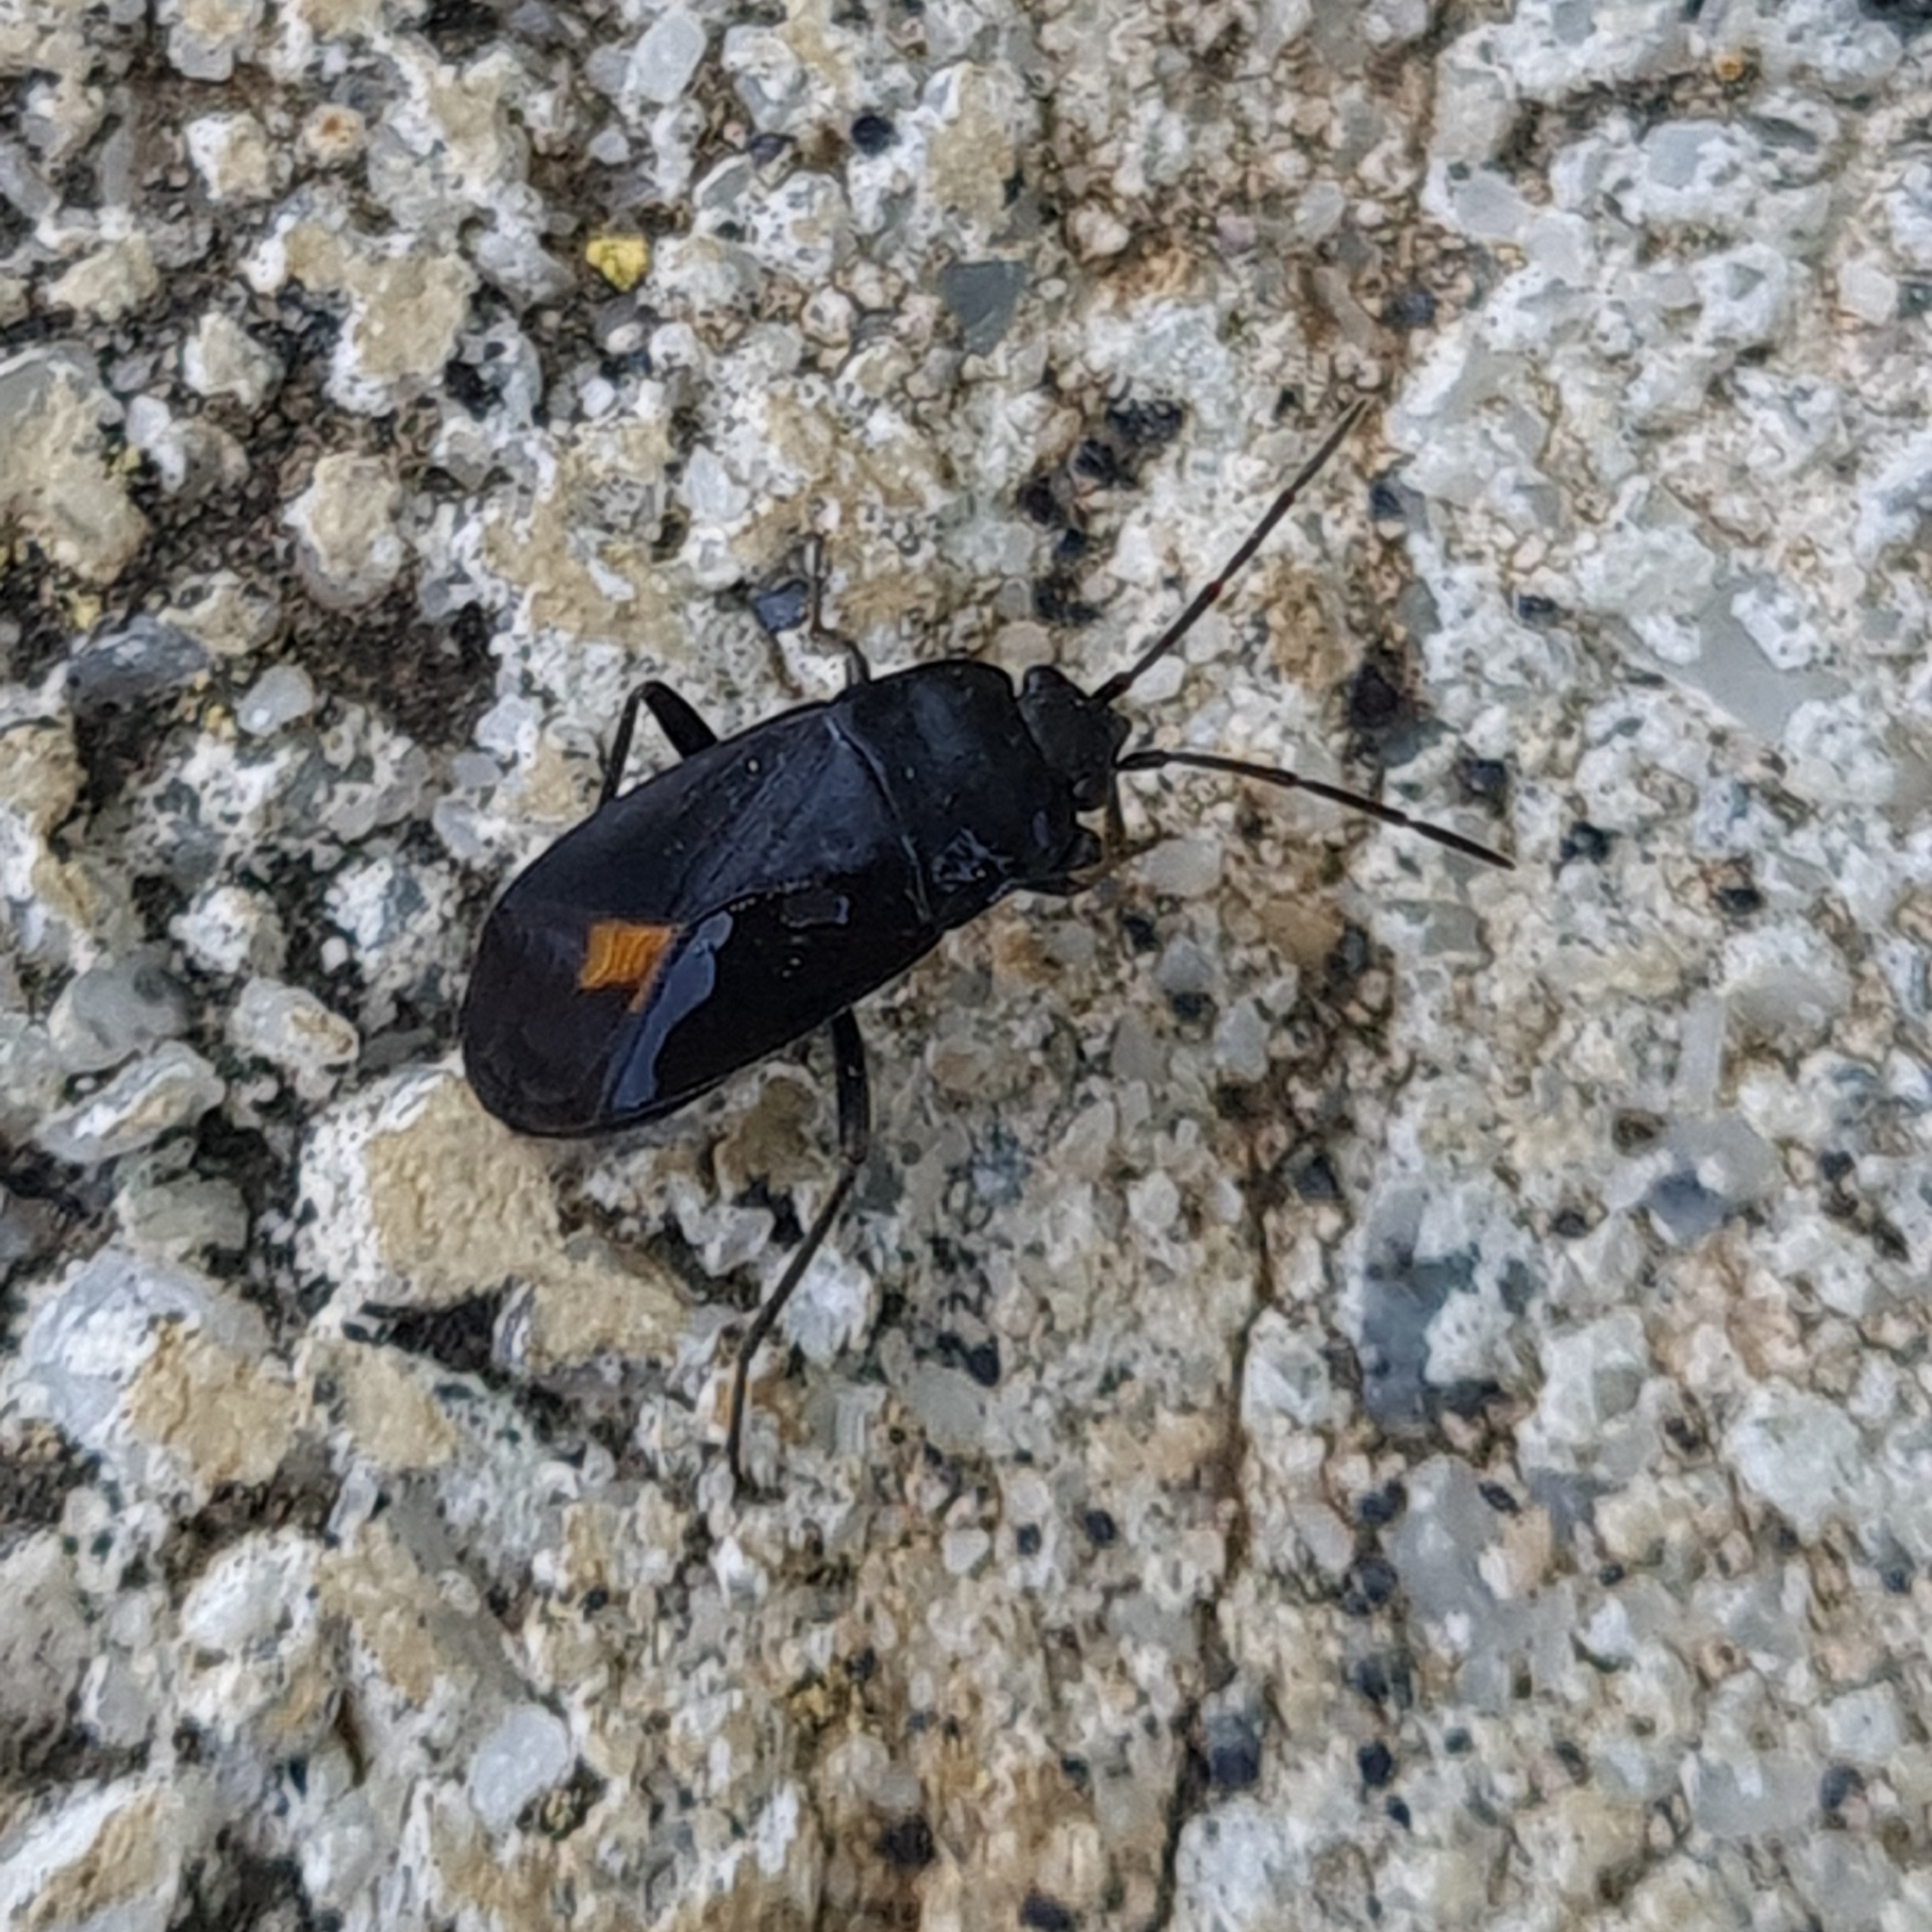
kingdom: Animalia
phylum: Arthropoda
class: Insecta
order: Hemiptera
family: Rhyparochromidae
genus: Aphanus
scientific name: Aphanus rolandri
